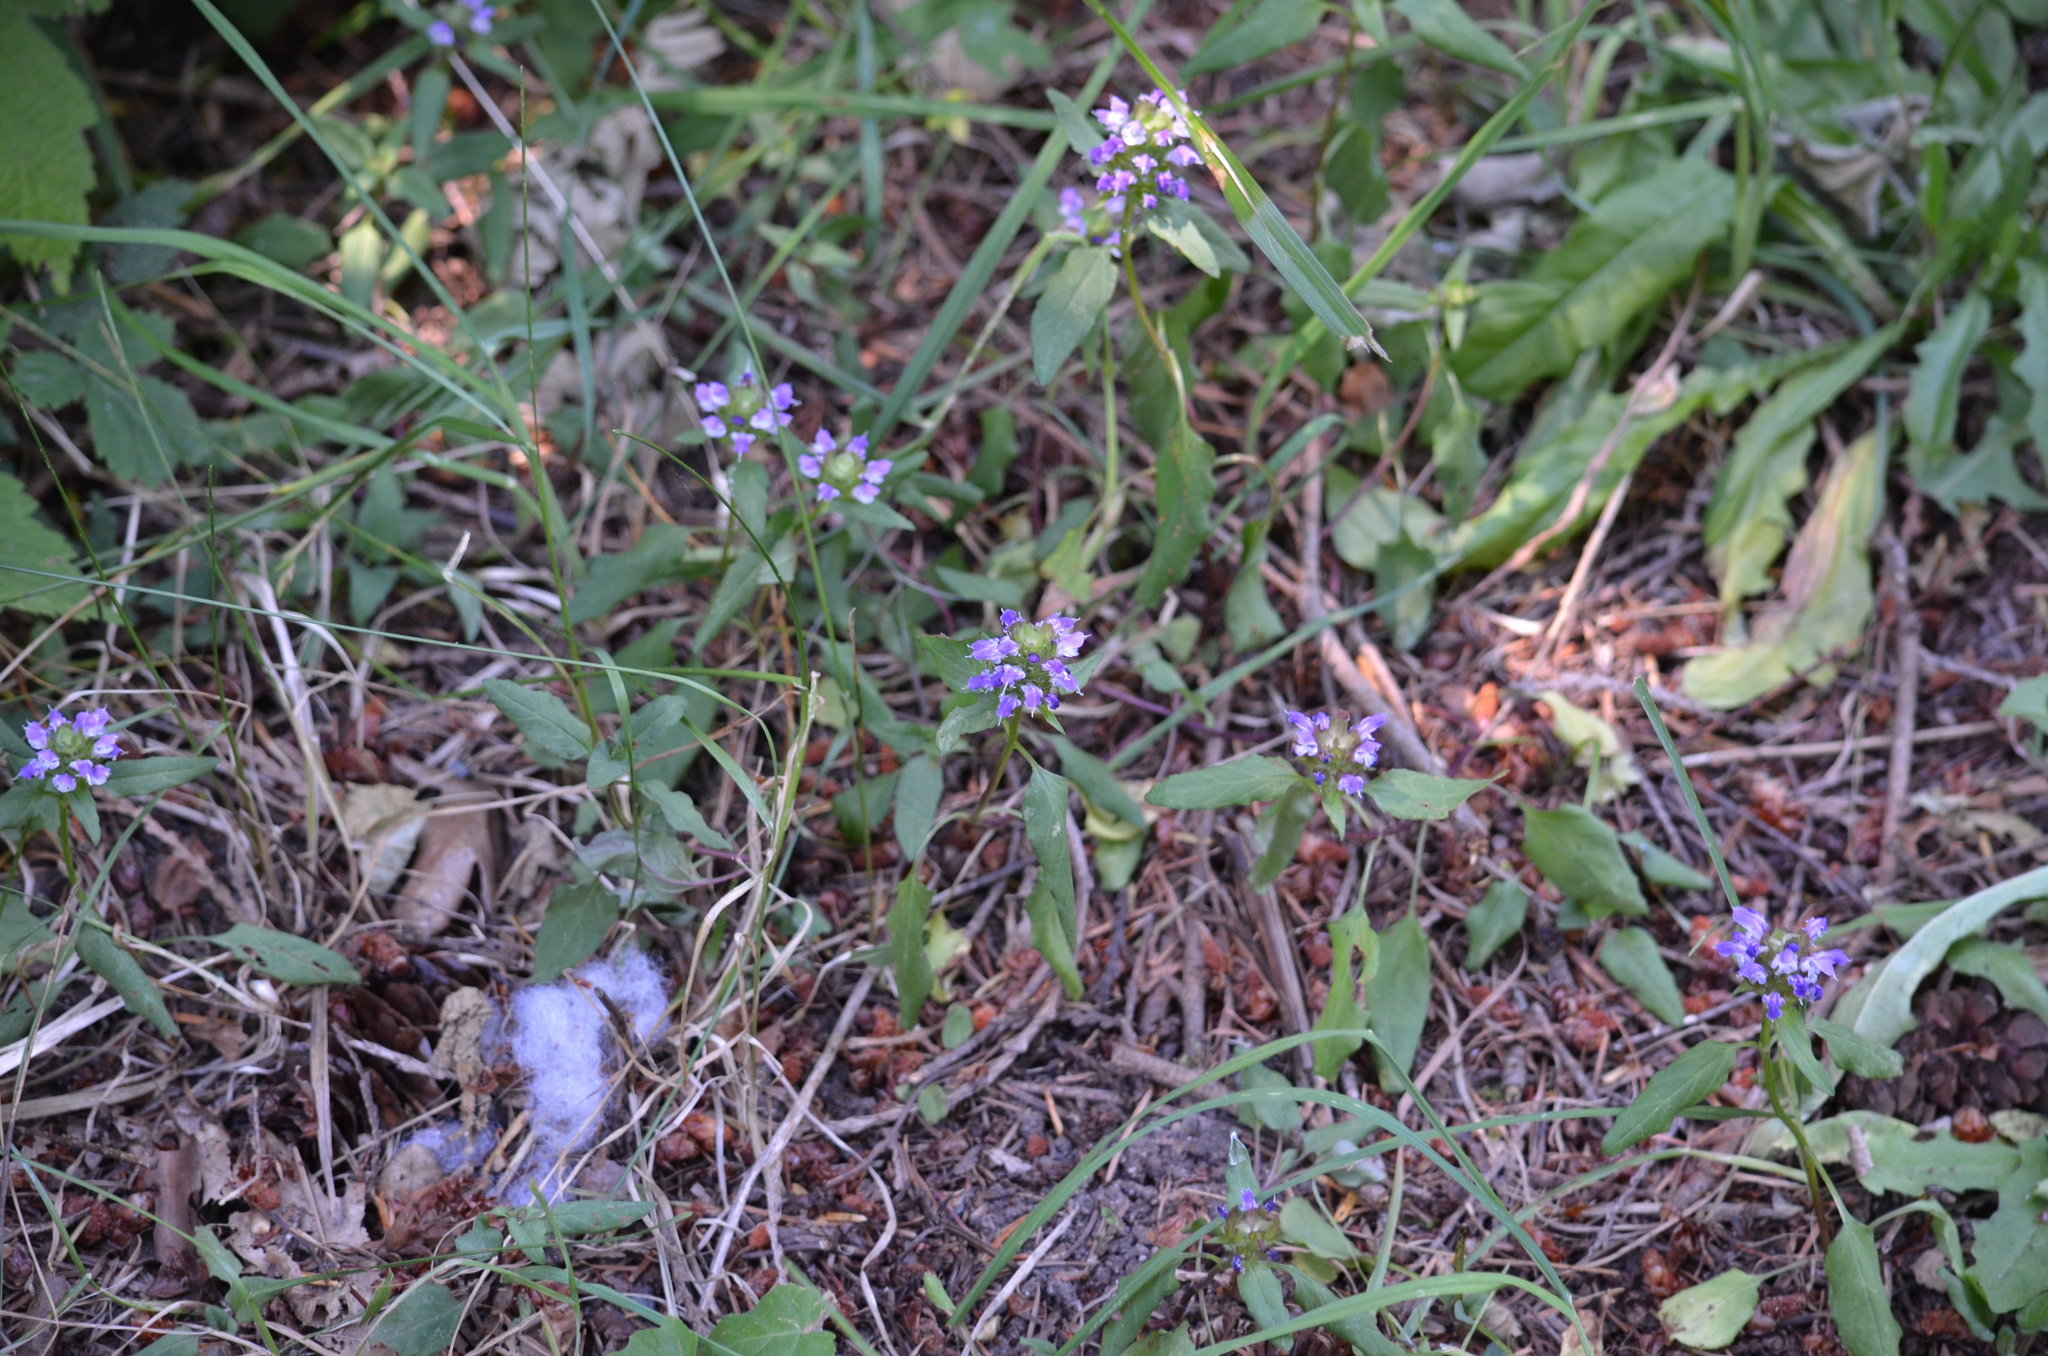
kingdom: Plantae
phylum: Tracheophyta
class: Magnoliopsida
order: Lamiales
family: Lamiaceae
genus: Prunella
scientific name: Prunella vulgaris
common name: Heal-all
